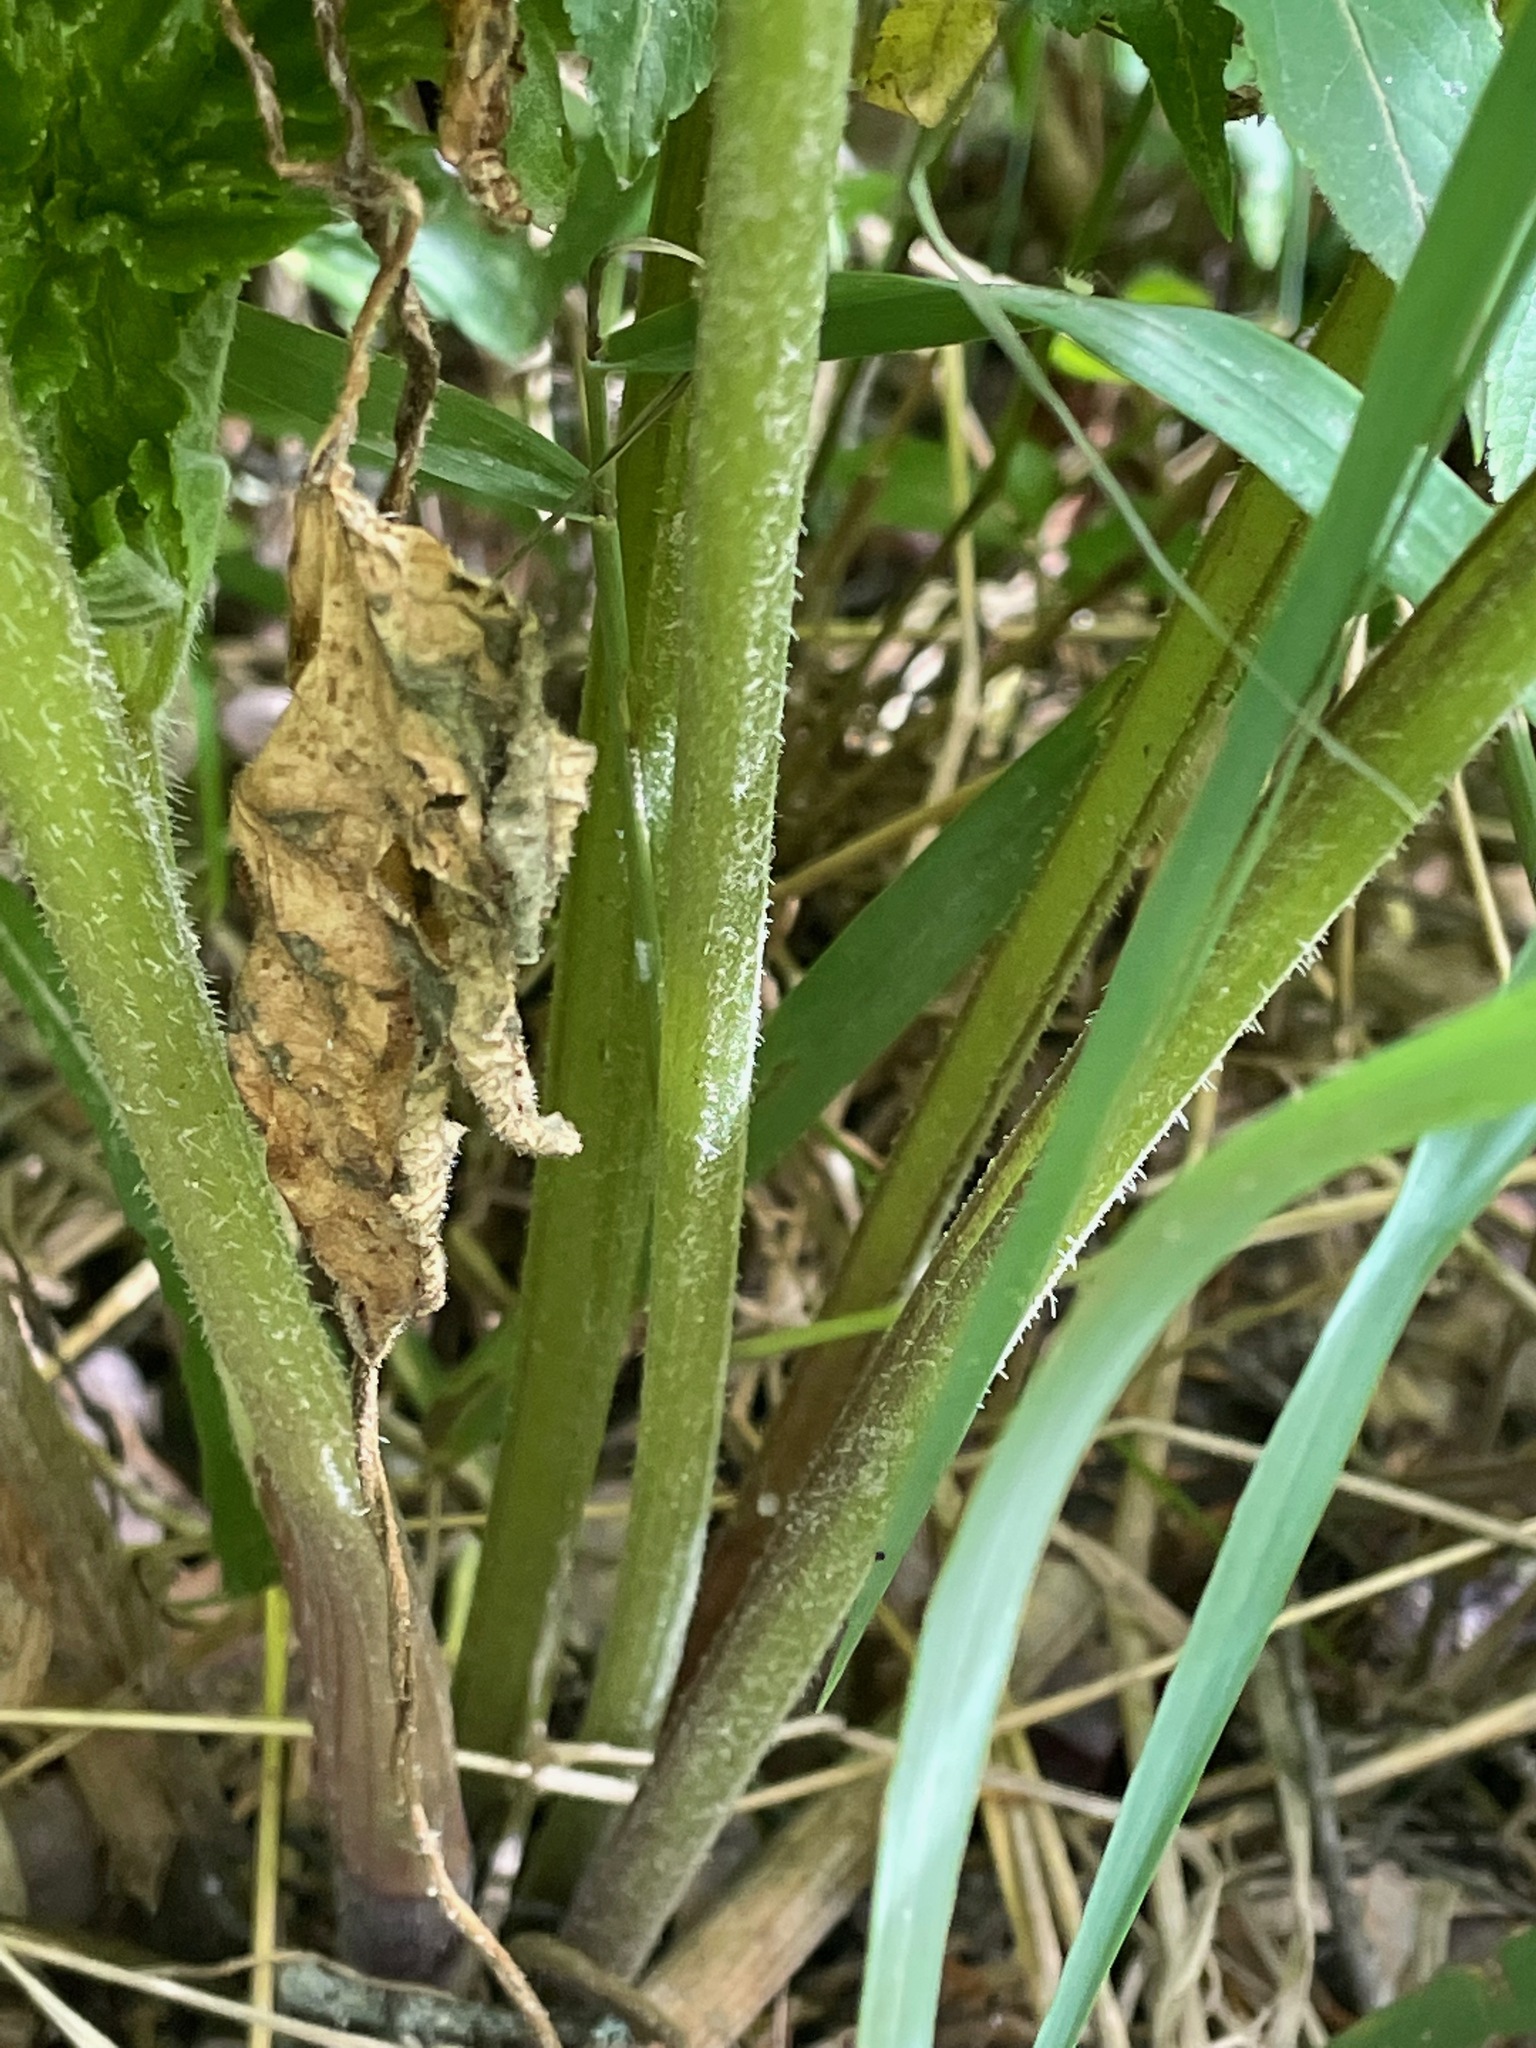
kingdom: Plantae
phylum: Tracheophyta
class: Magnoliopsida
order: Apiales
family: Apiaceae
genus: Heracleum
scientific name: Heracleum sphondylium
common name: Hogweed
